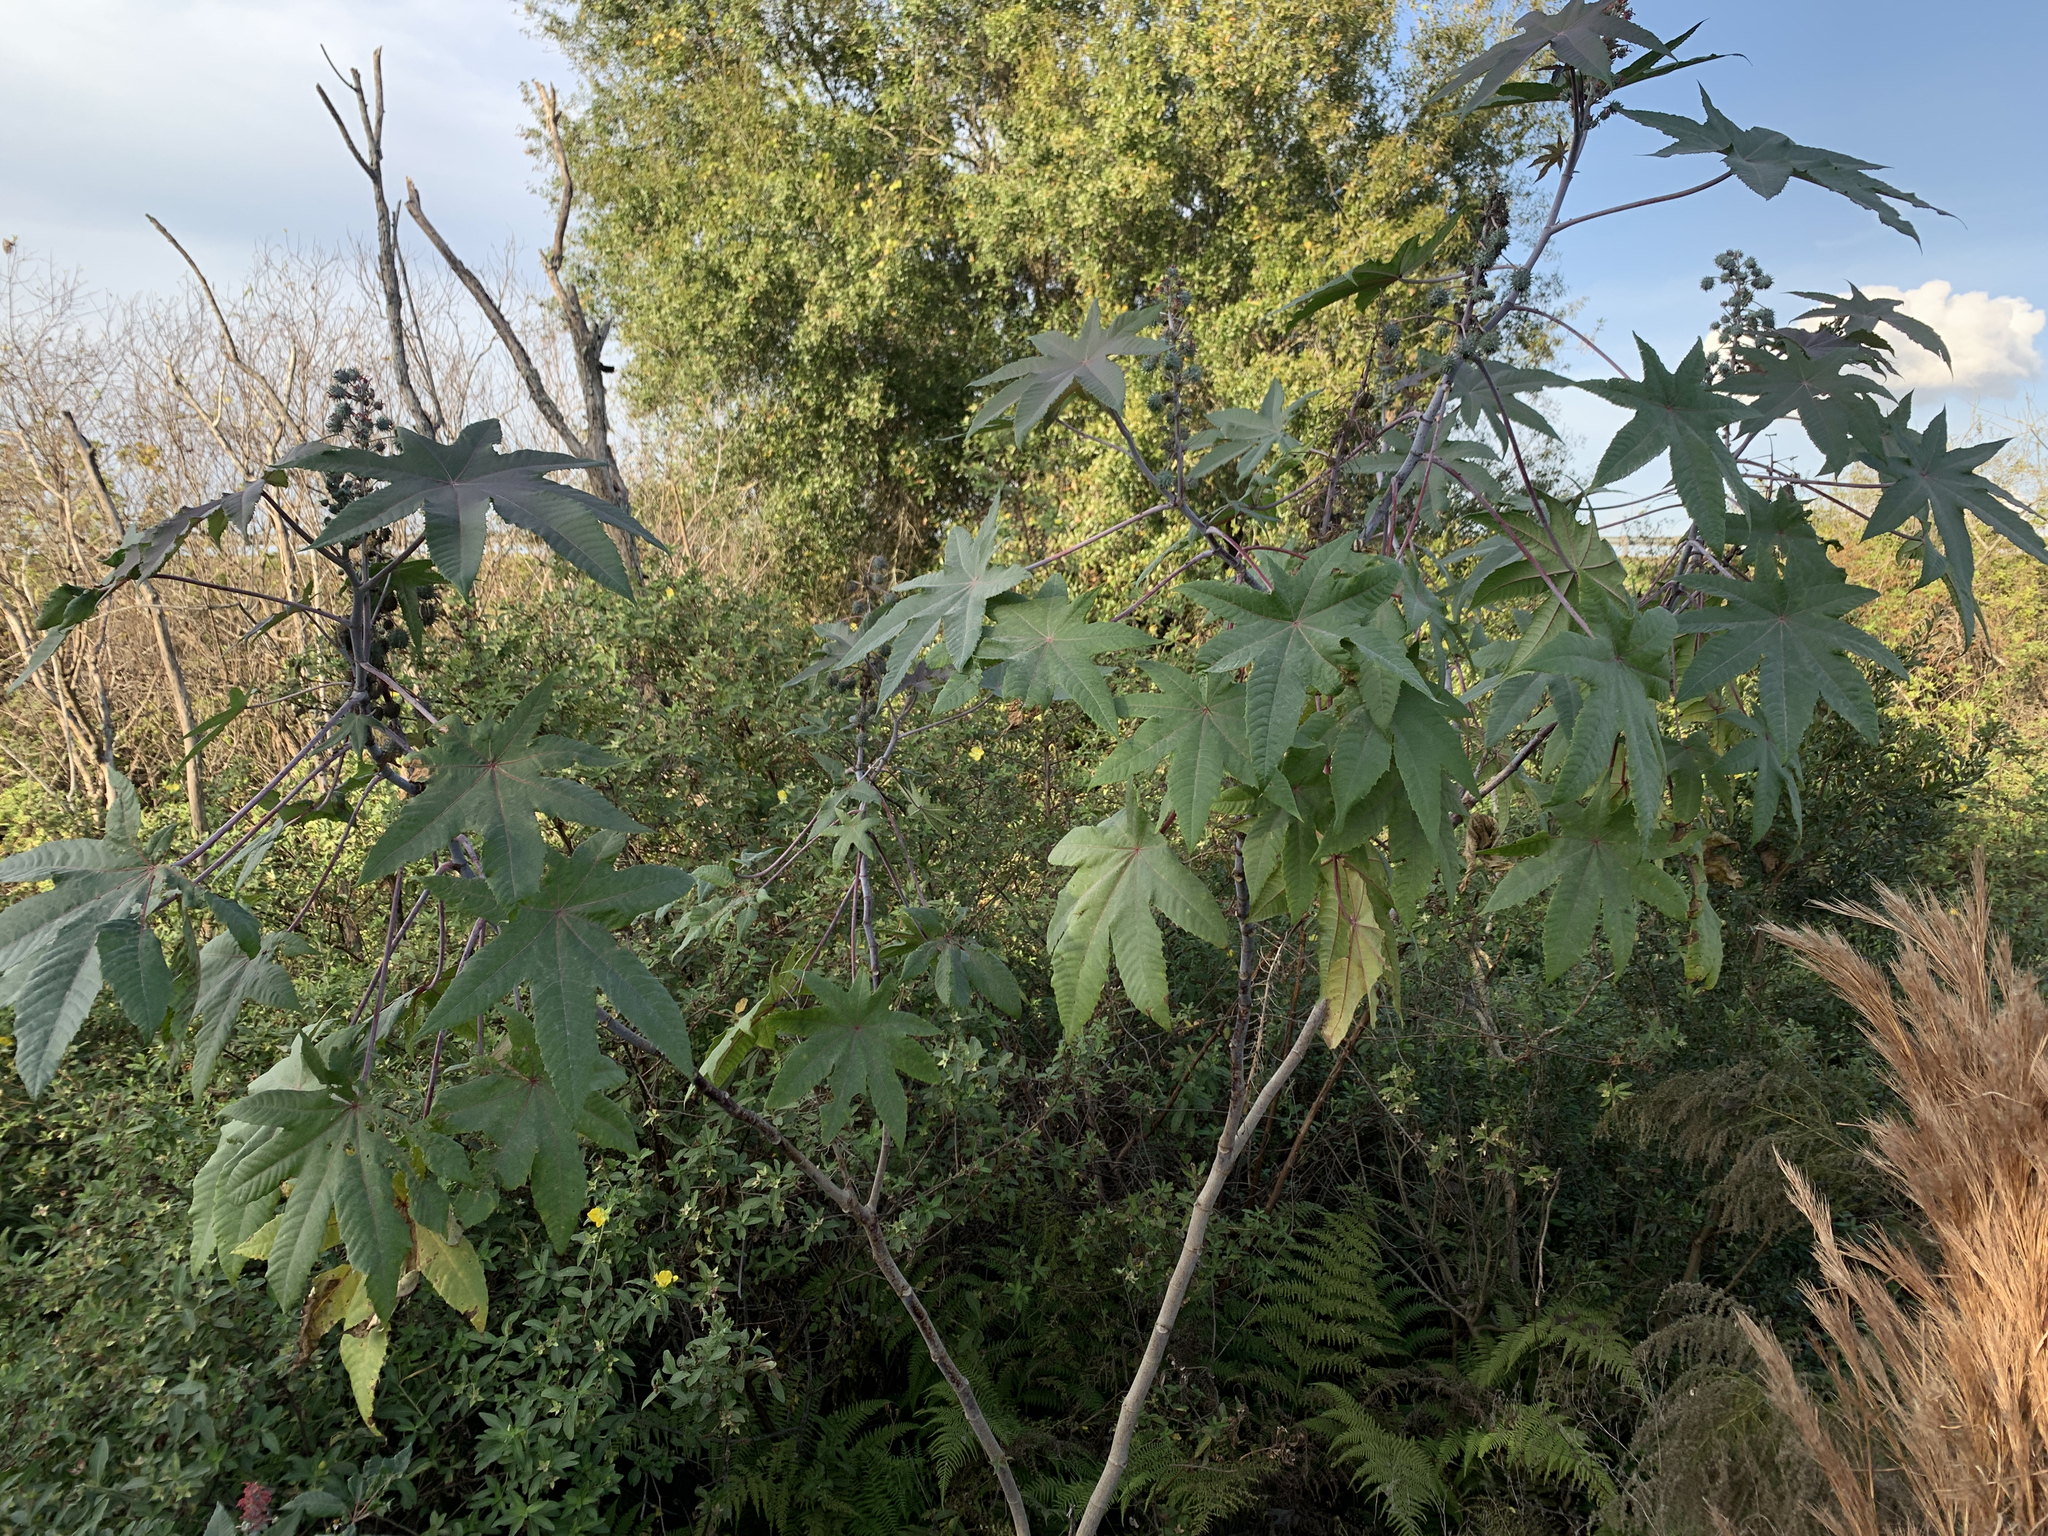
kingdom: Plantae
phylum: Tracheophyta
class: Magnoliopsida
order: Malpighiales
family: Euphorbiaceae
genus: Ricinus
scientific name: Ricinus communis
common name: Castor-oil-plant
